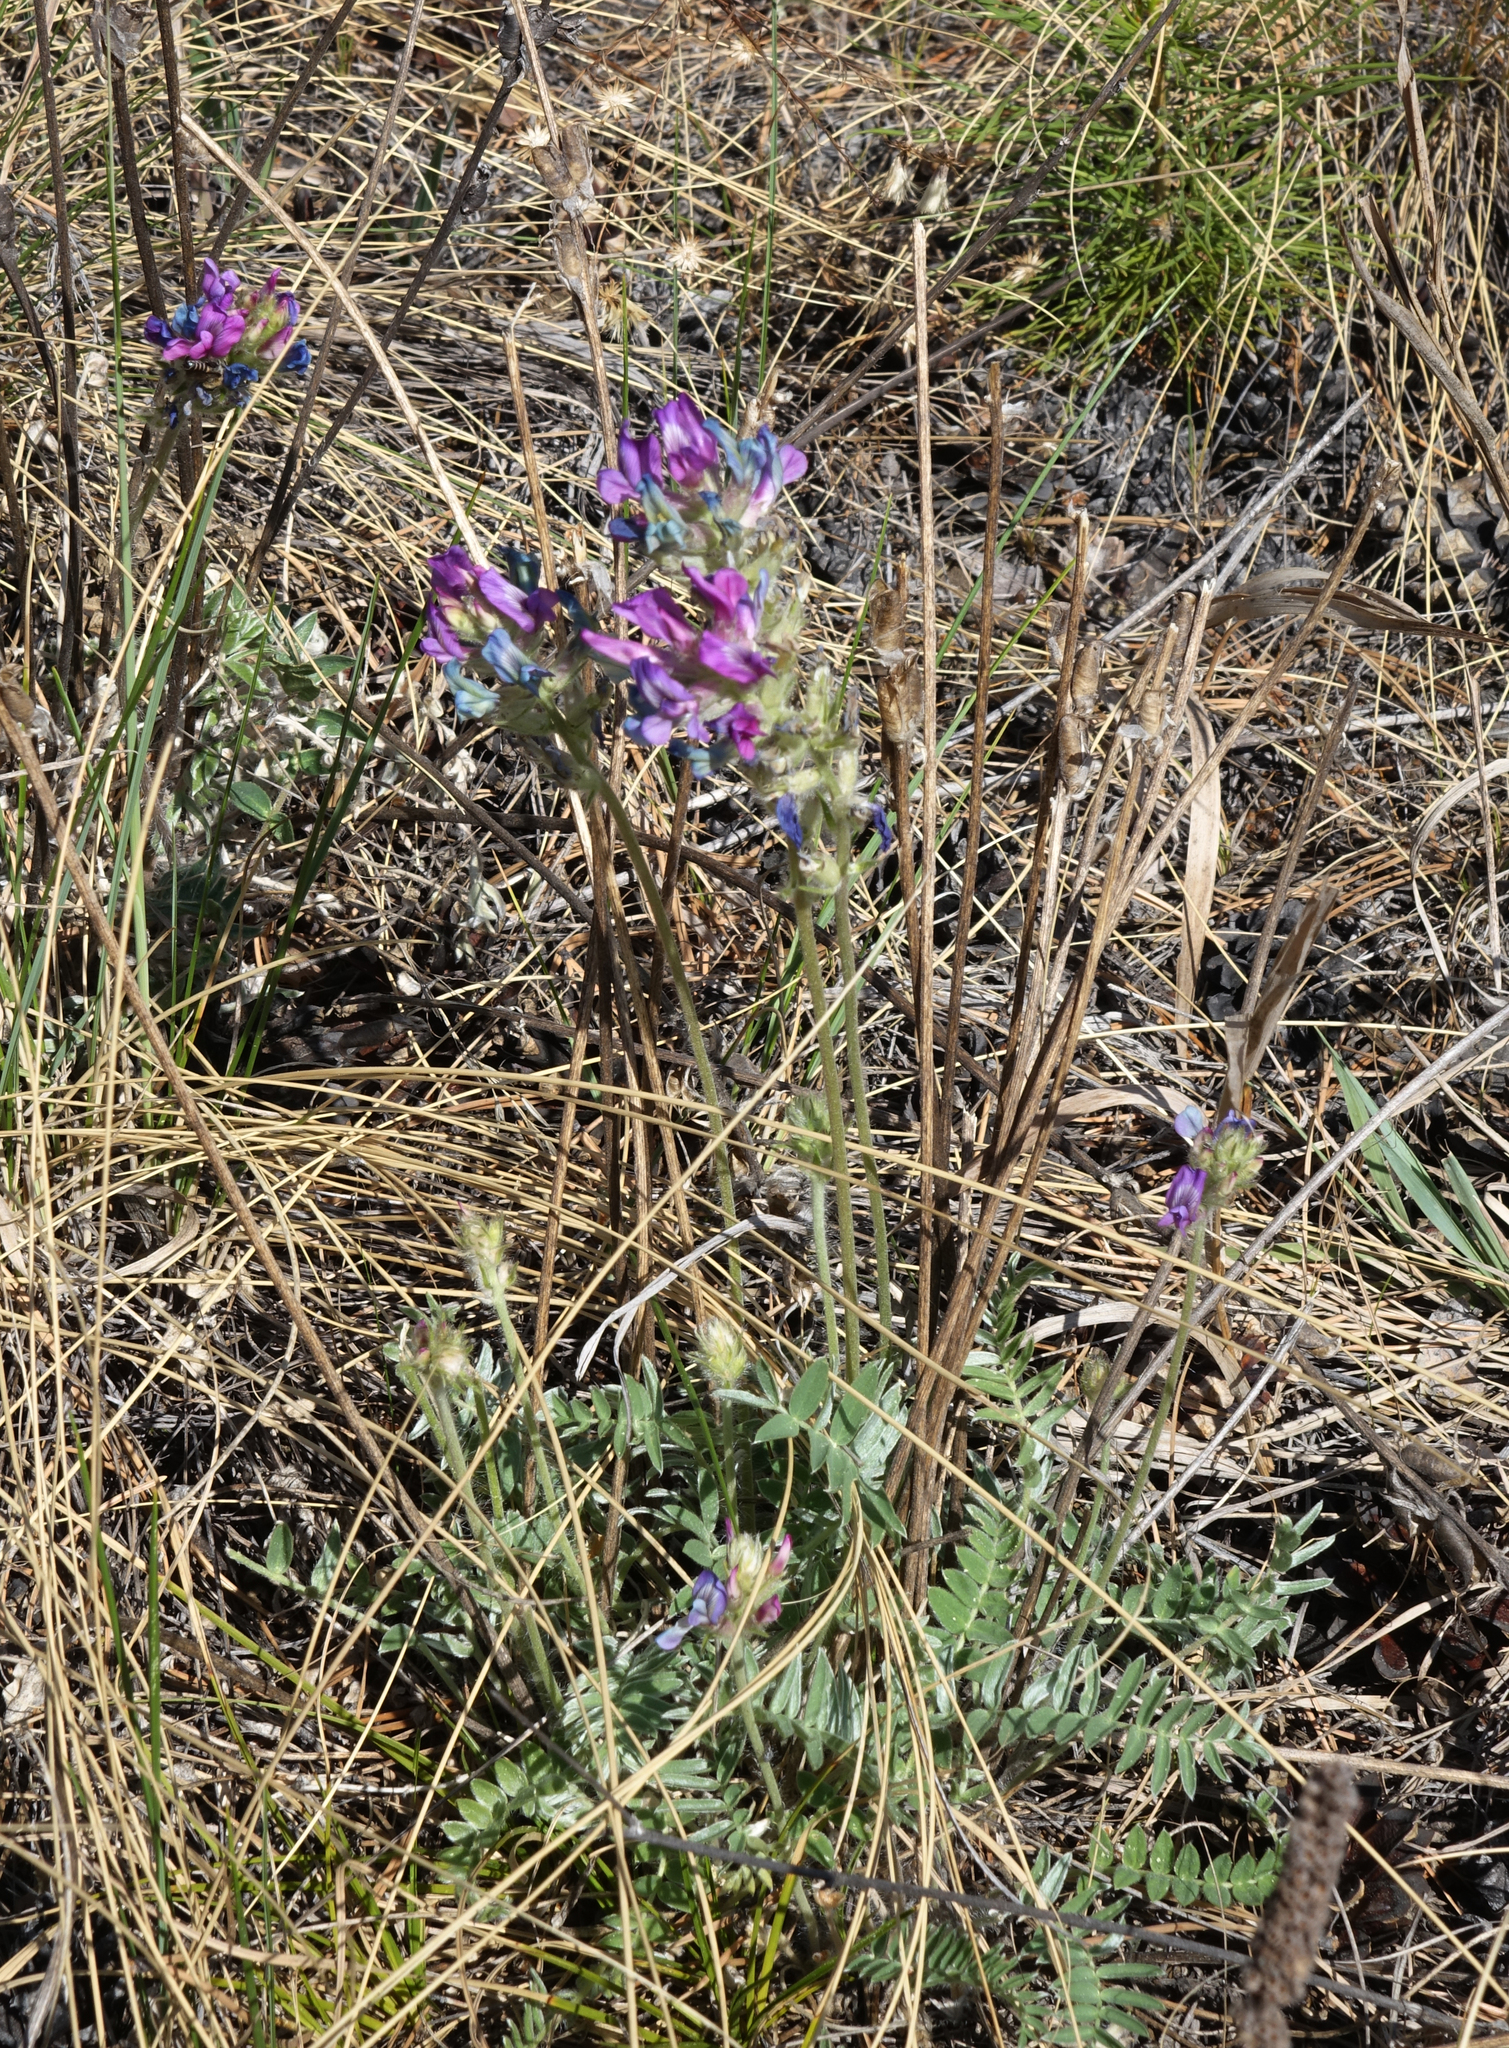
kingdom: Plantae
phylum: Tracheophyta
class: Magnoliopsida
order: Fabales
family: Fabaceae
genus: Oxytropis
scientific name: Oxytropis strobilacea
